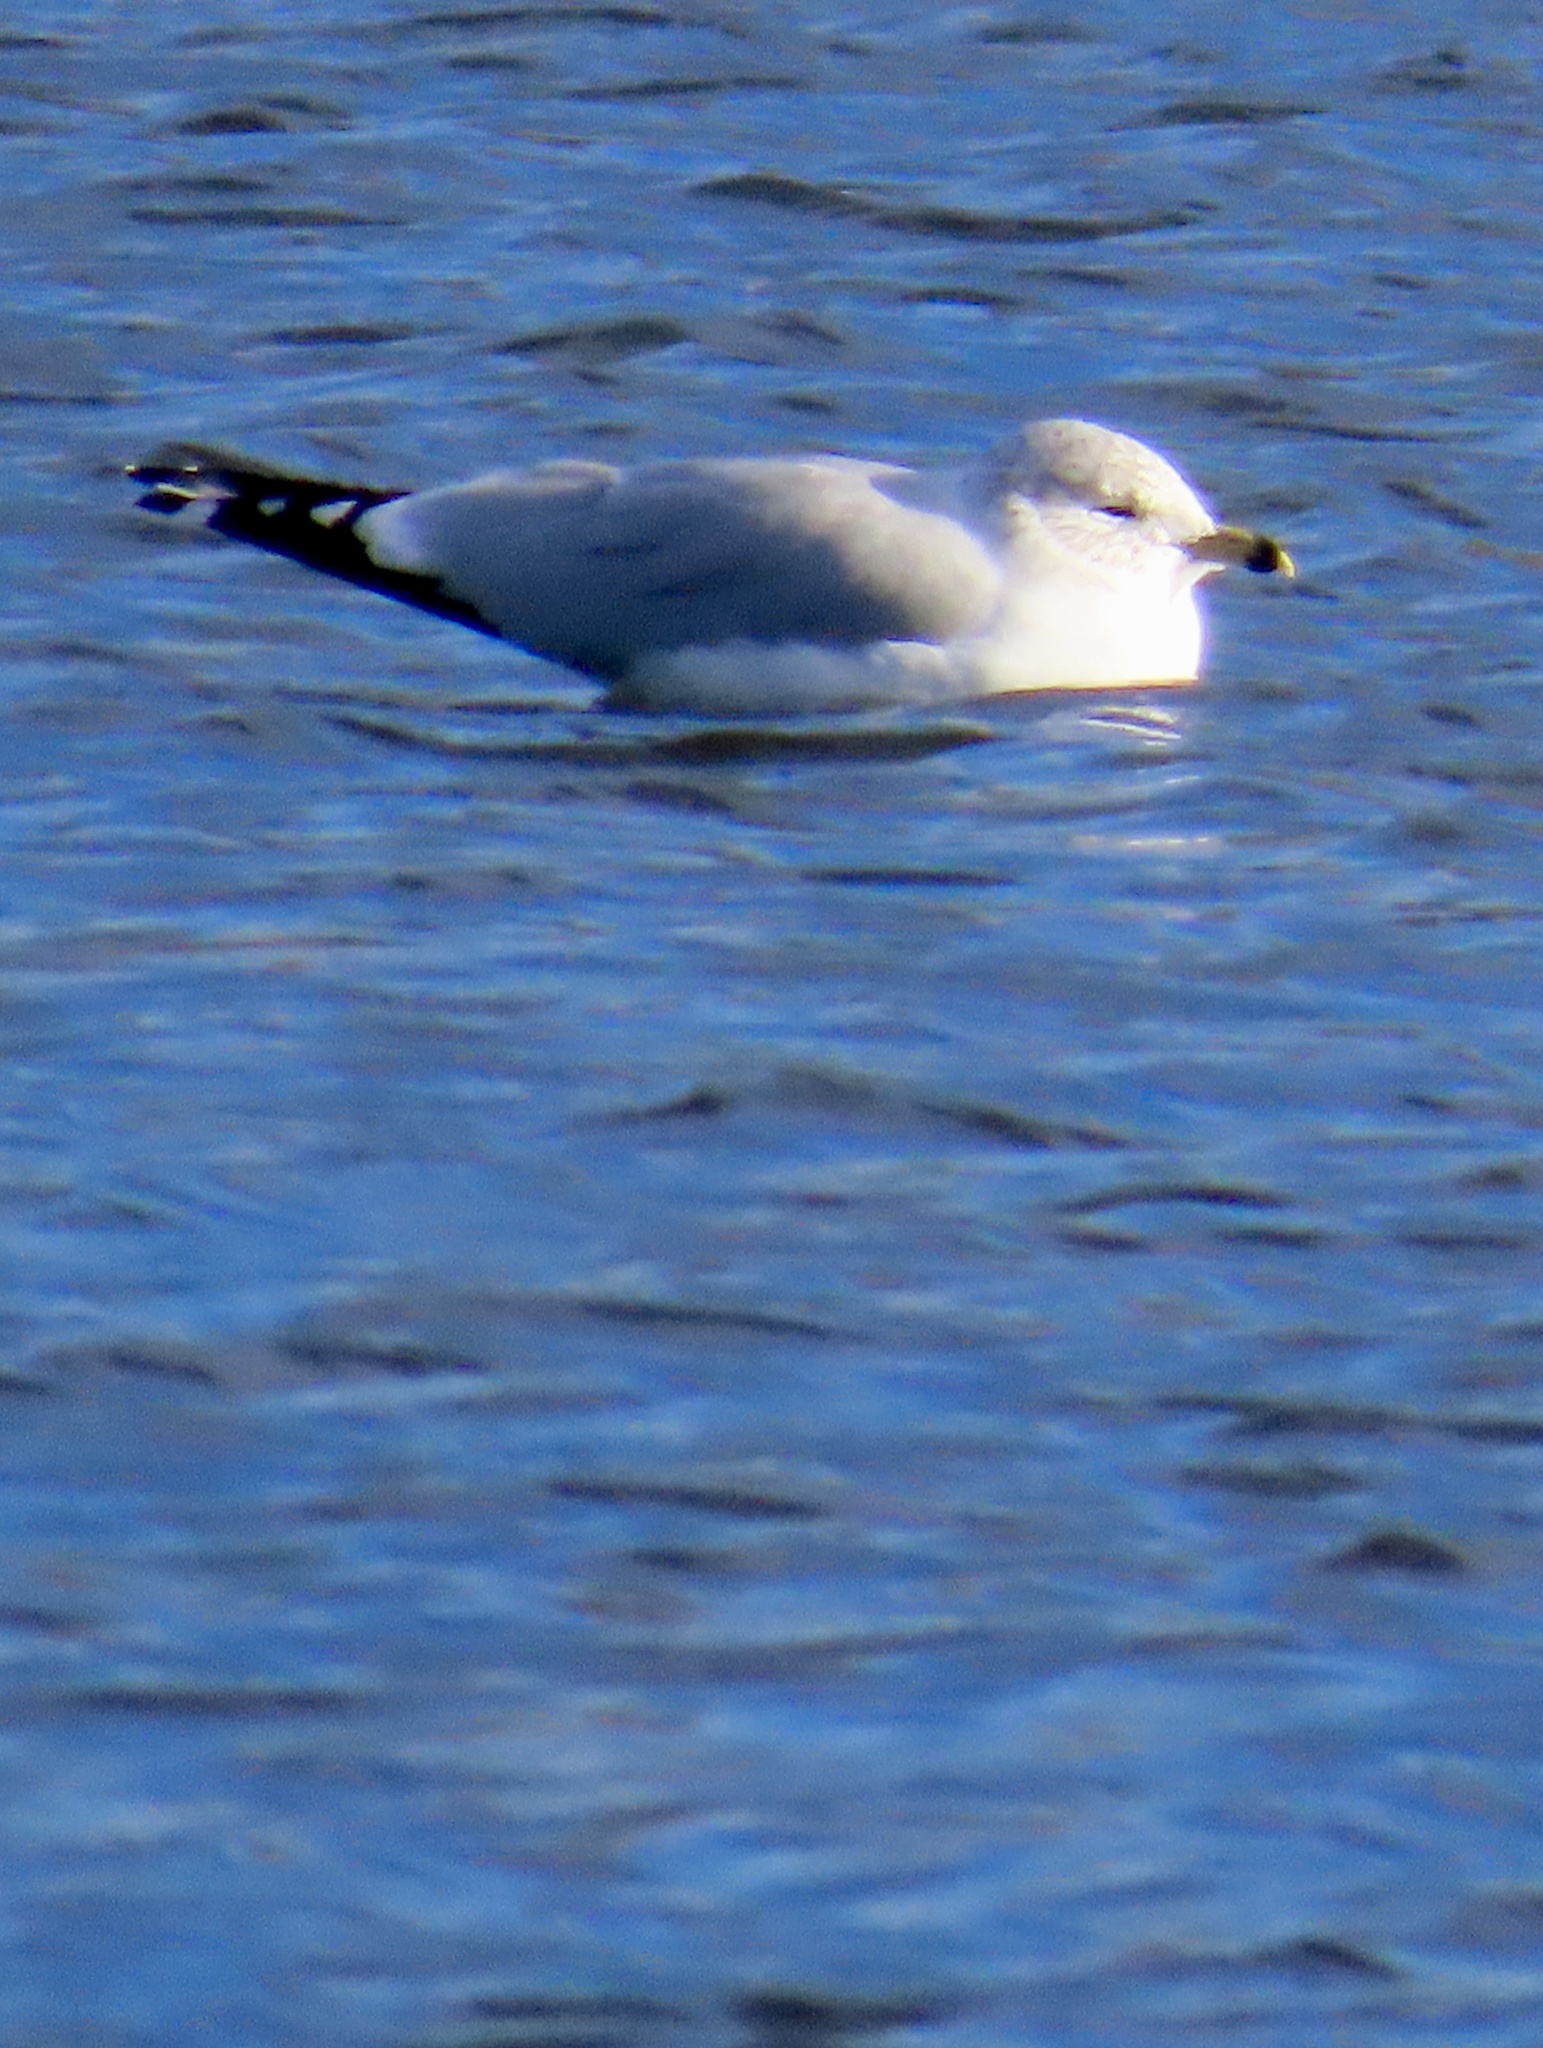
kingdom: Animalia
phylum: Chordata
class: Aves
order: Charadriiformes
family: Laridae
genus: Larus
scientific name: Larus delawarensis
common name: Ring-billed gull
